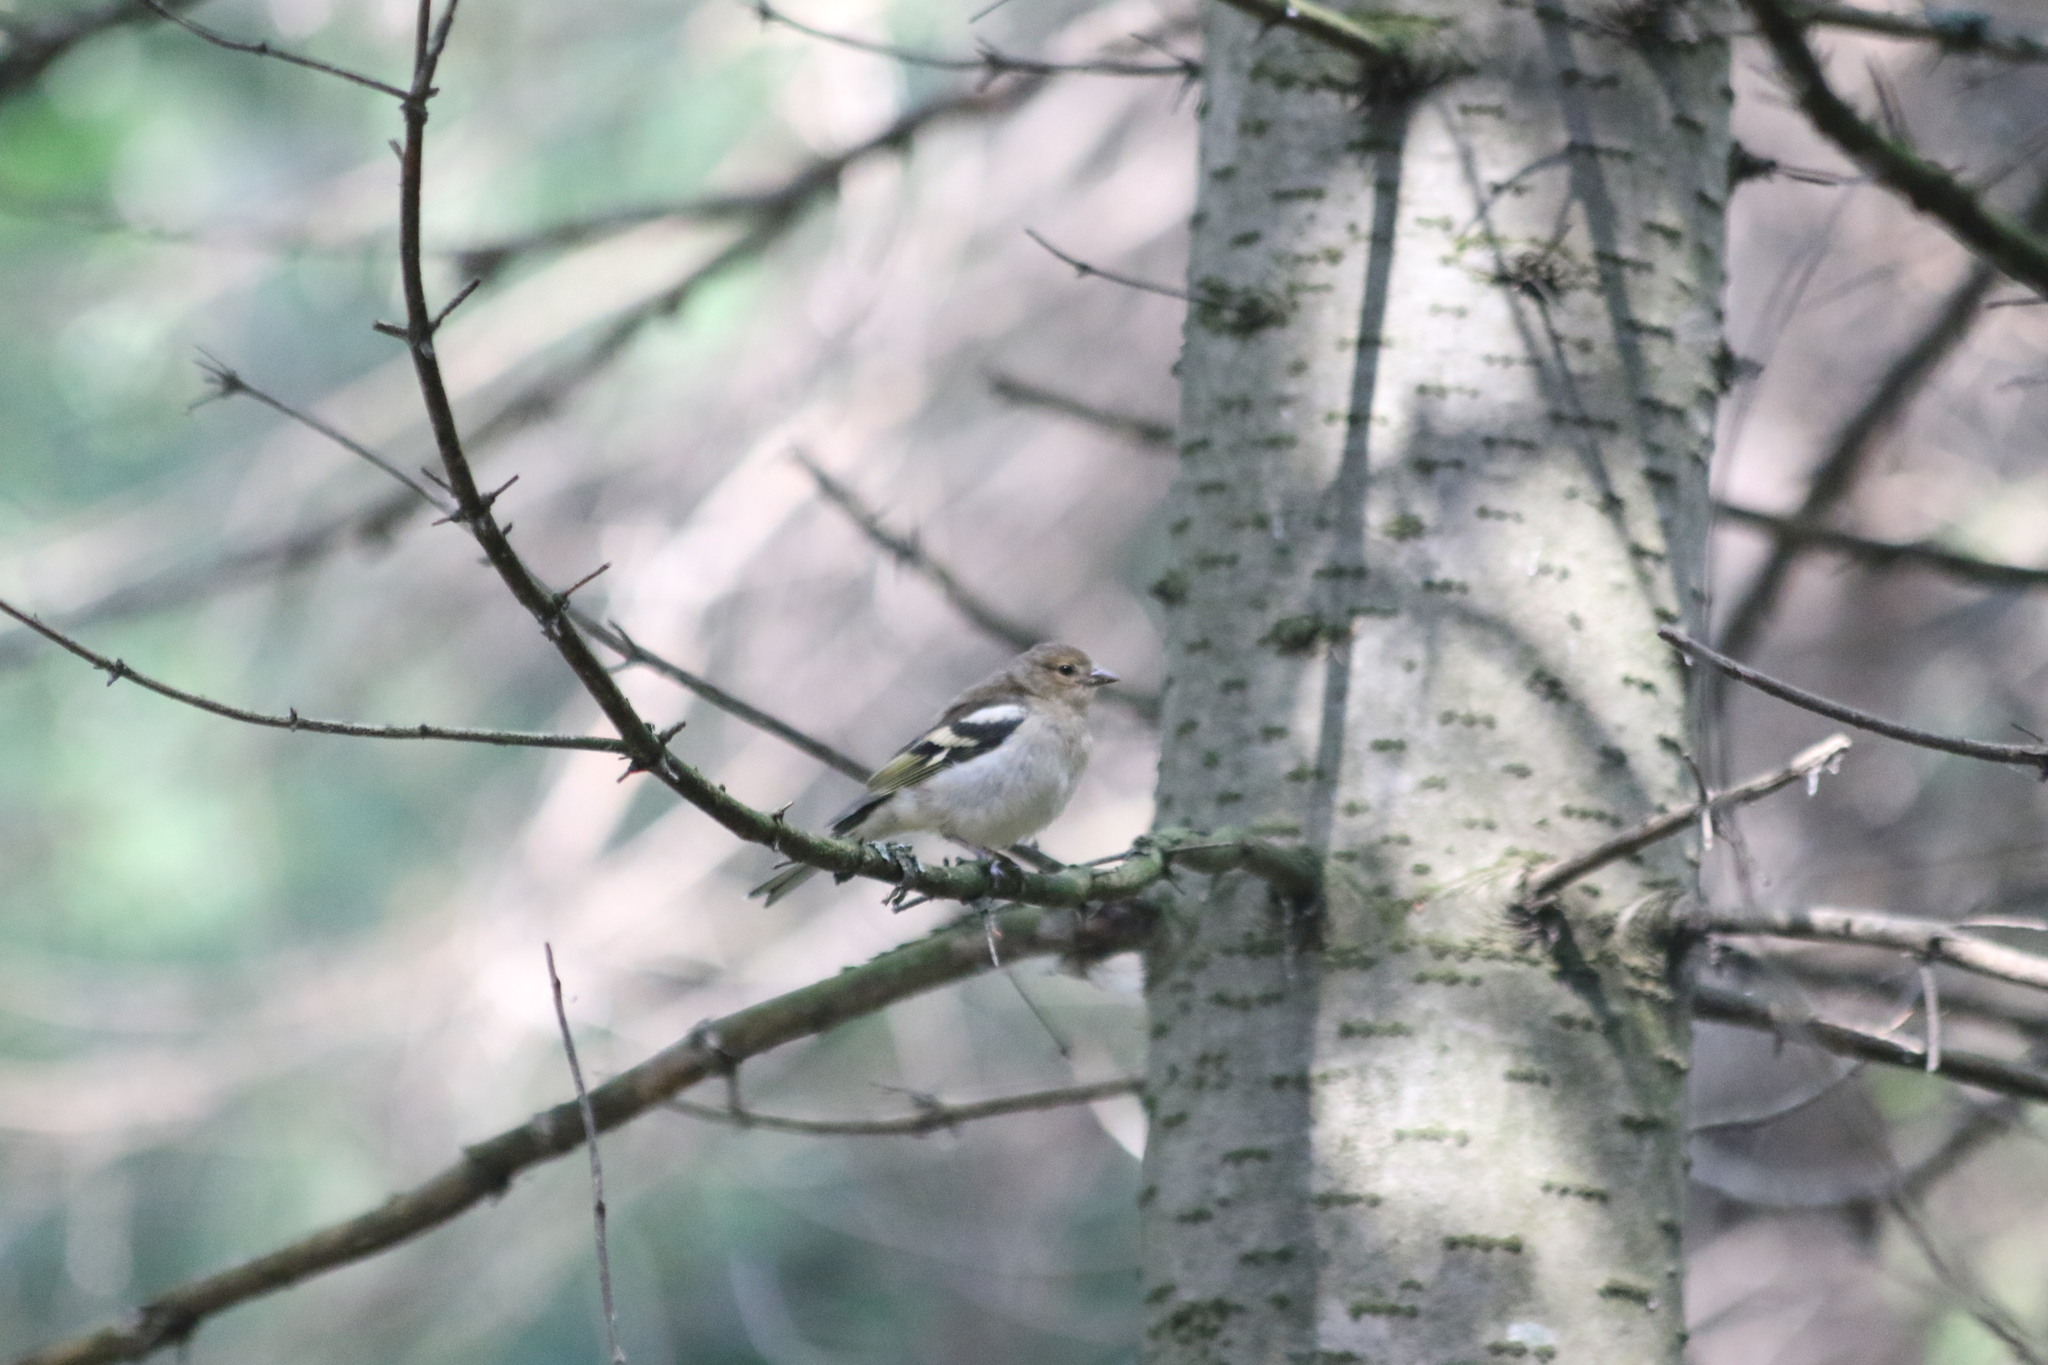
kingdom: Animalia
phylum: Chordata
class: Aves
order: Passeriformes
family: Fringillidae
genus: Fringilla
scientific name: Fringilla coelebs
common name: Common chaffinch
